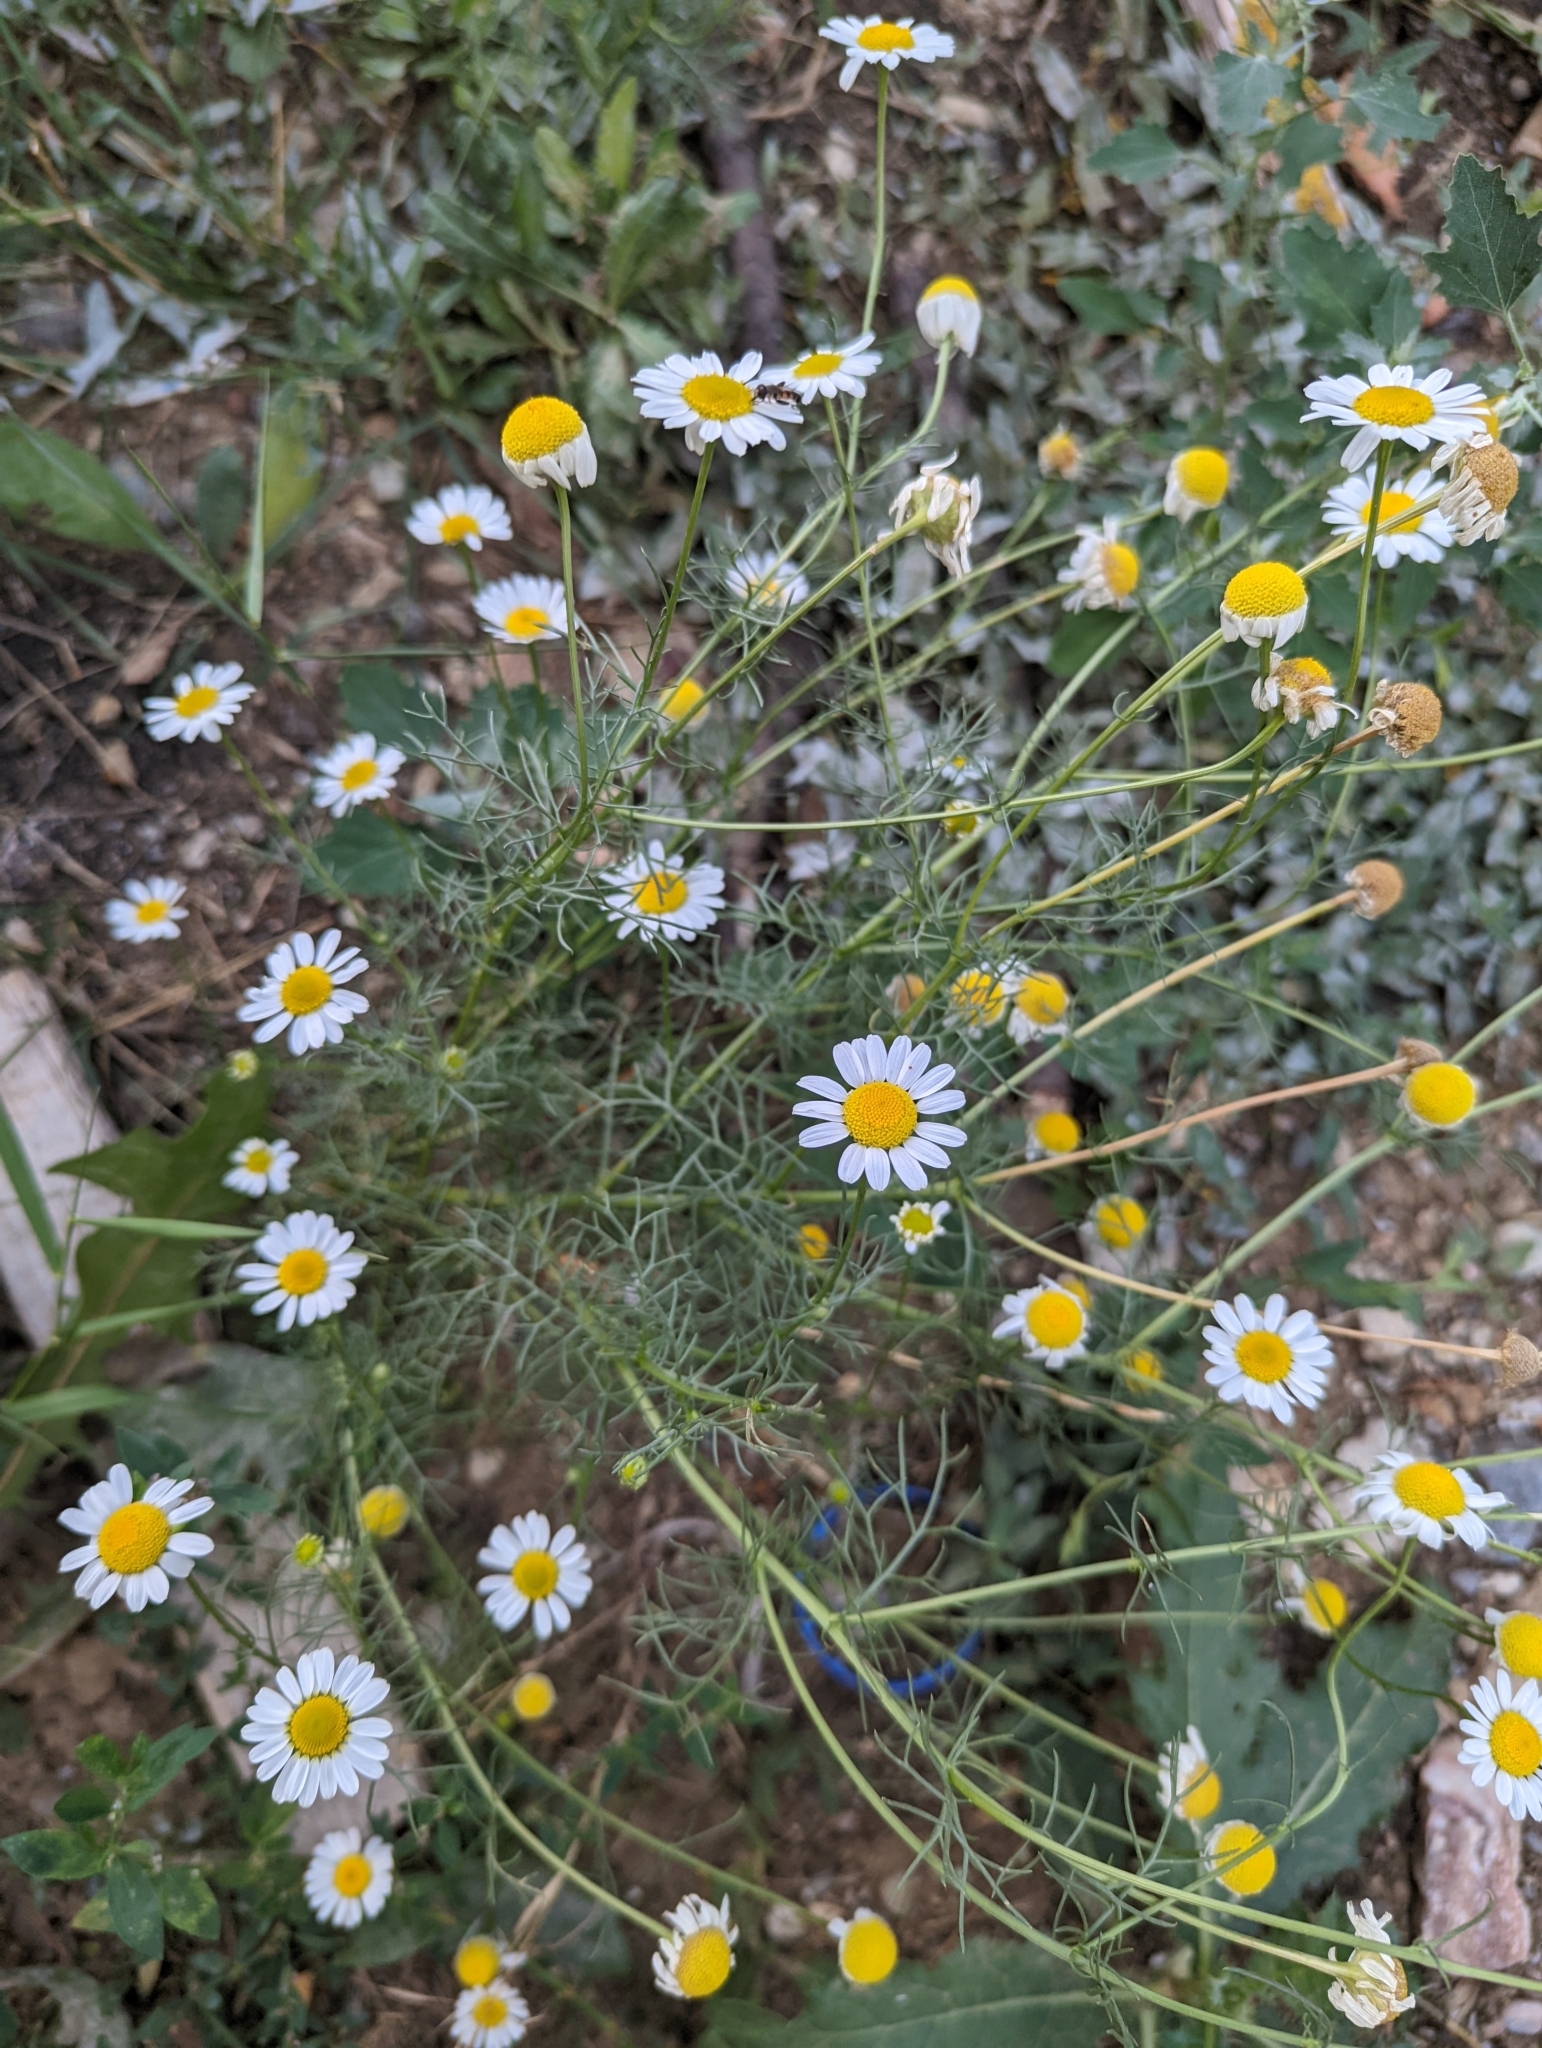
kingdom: Plantae
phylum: Tracheophyta
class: Magnoliopsida
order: Asterales
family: Asteraceae
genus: Tripleurospermum
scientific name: Tripleurospermum inodorum
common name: Scentless mayweed
